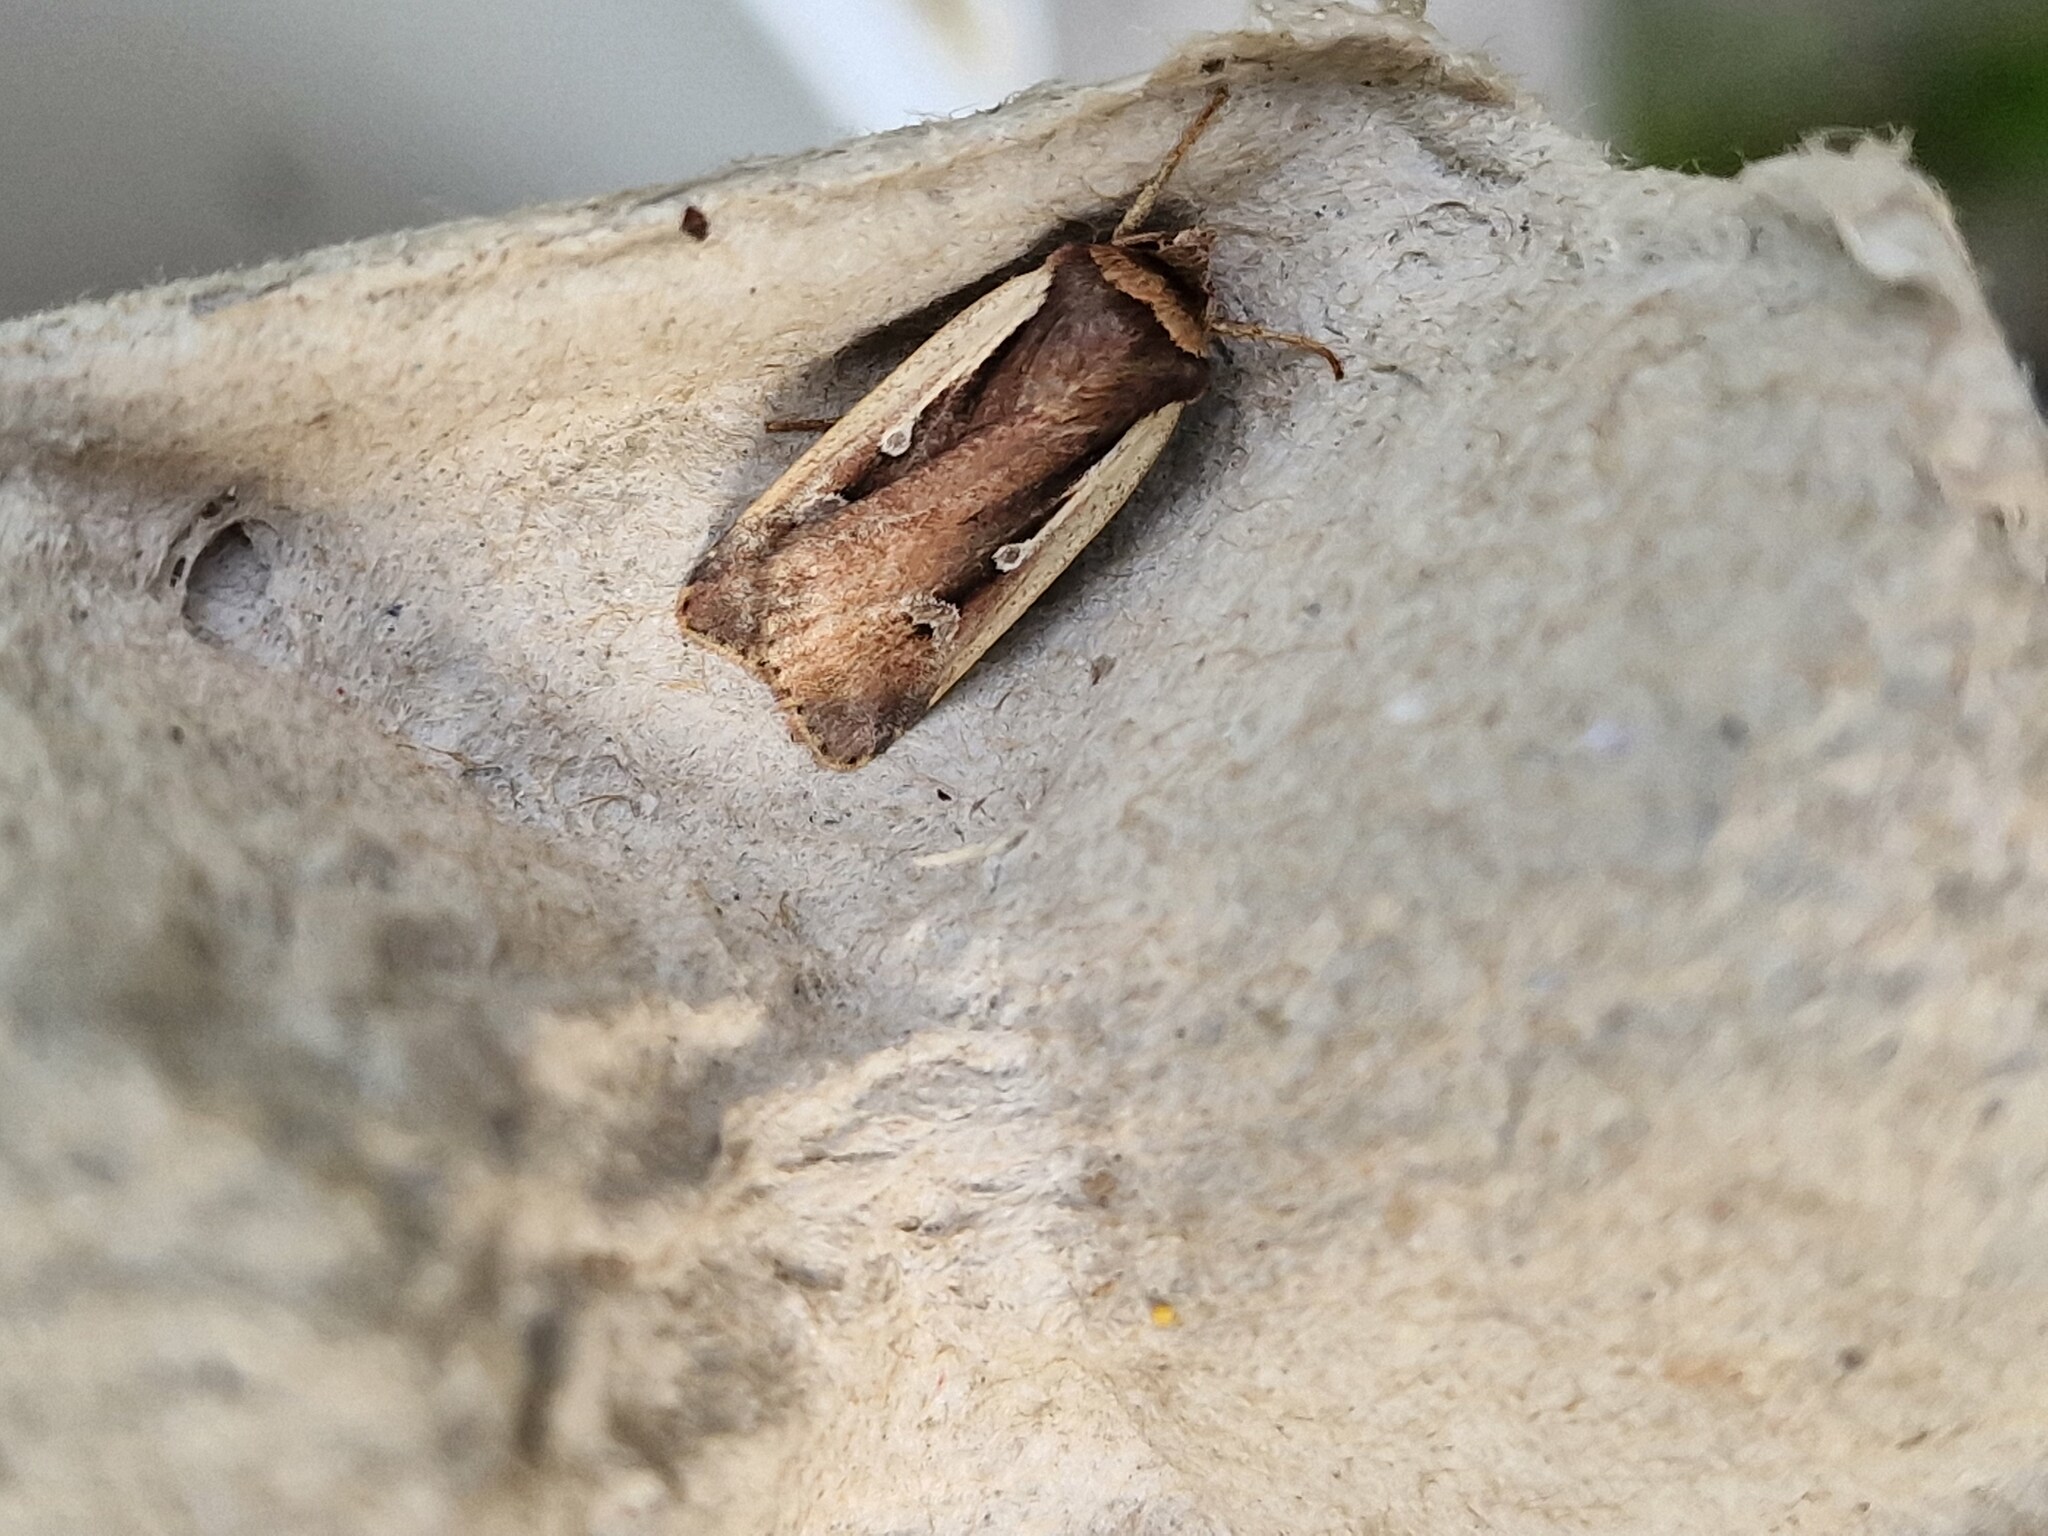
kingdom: Animalia
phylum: Arthropoda
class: Insecta
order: Lepidoptera
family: Noctuidae
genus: Ochropleura
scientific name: Ochropleura plecta
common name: Flame shoulder
